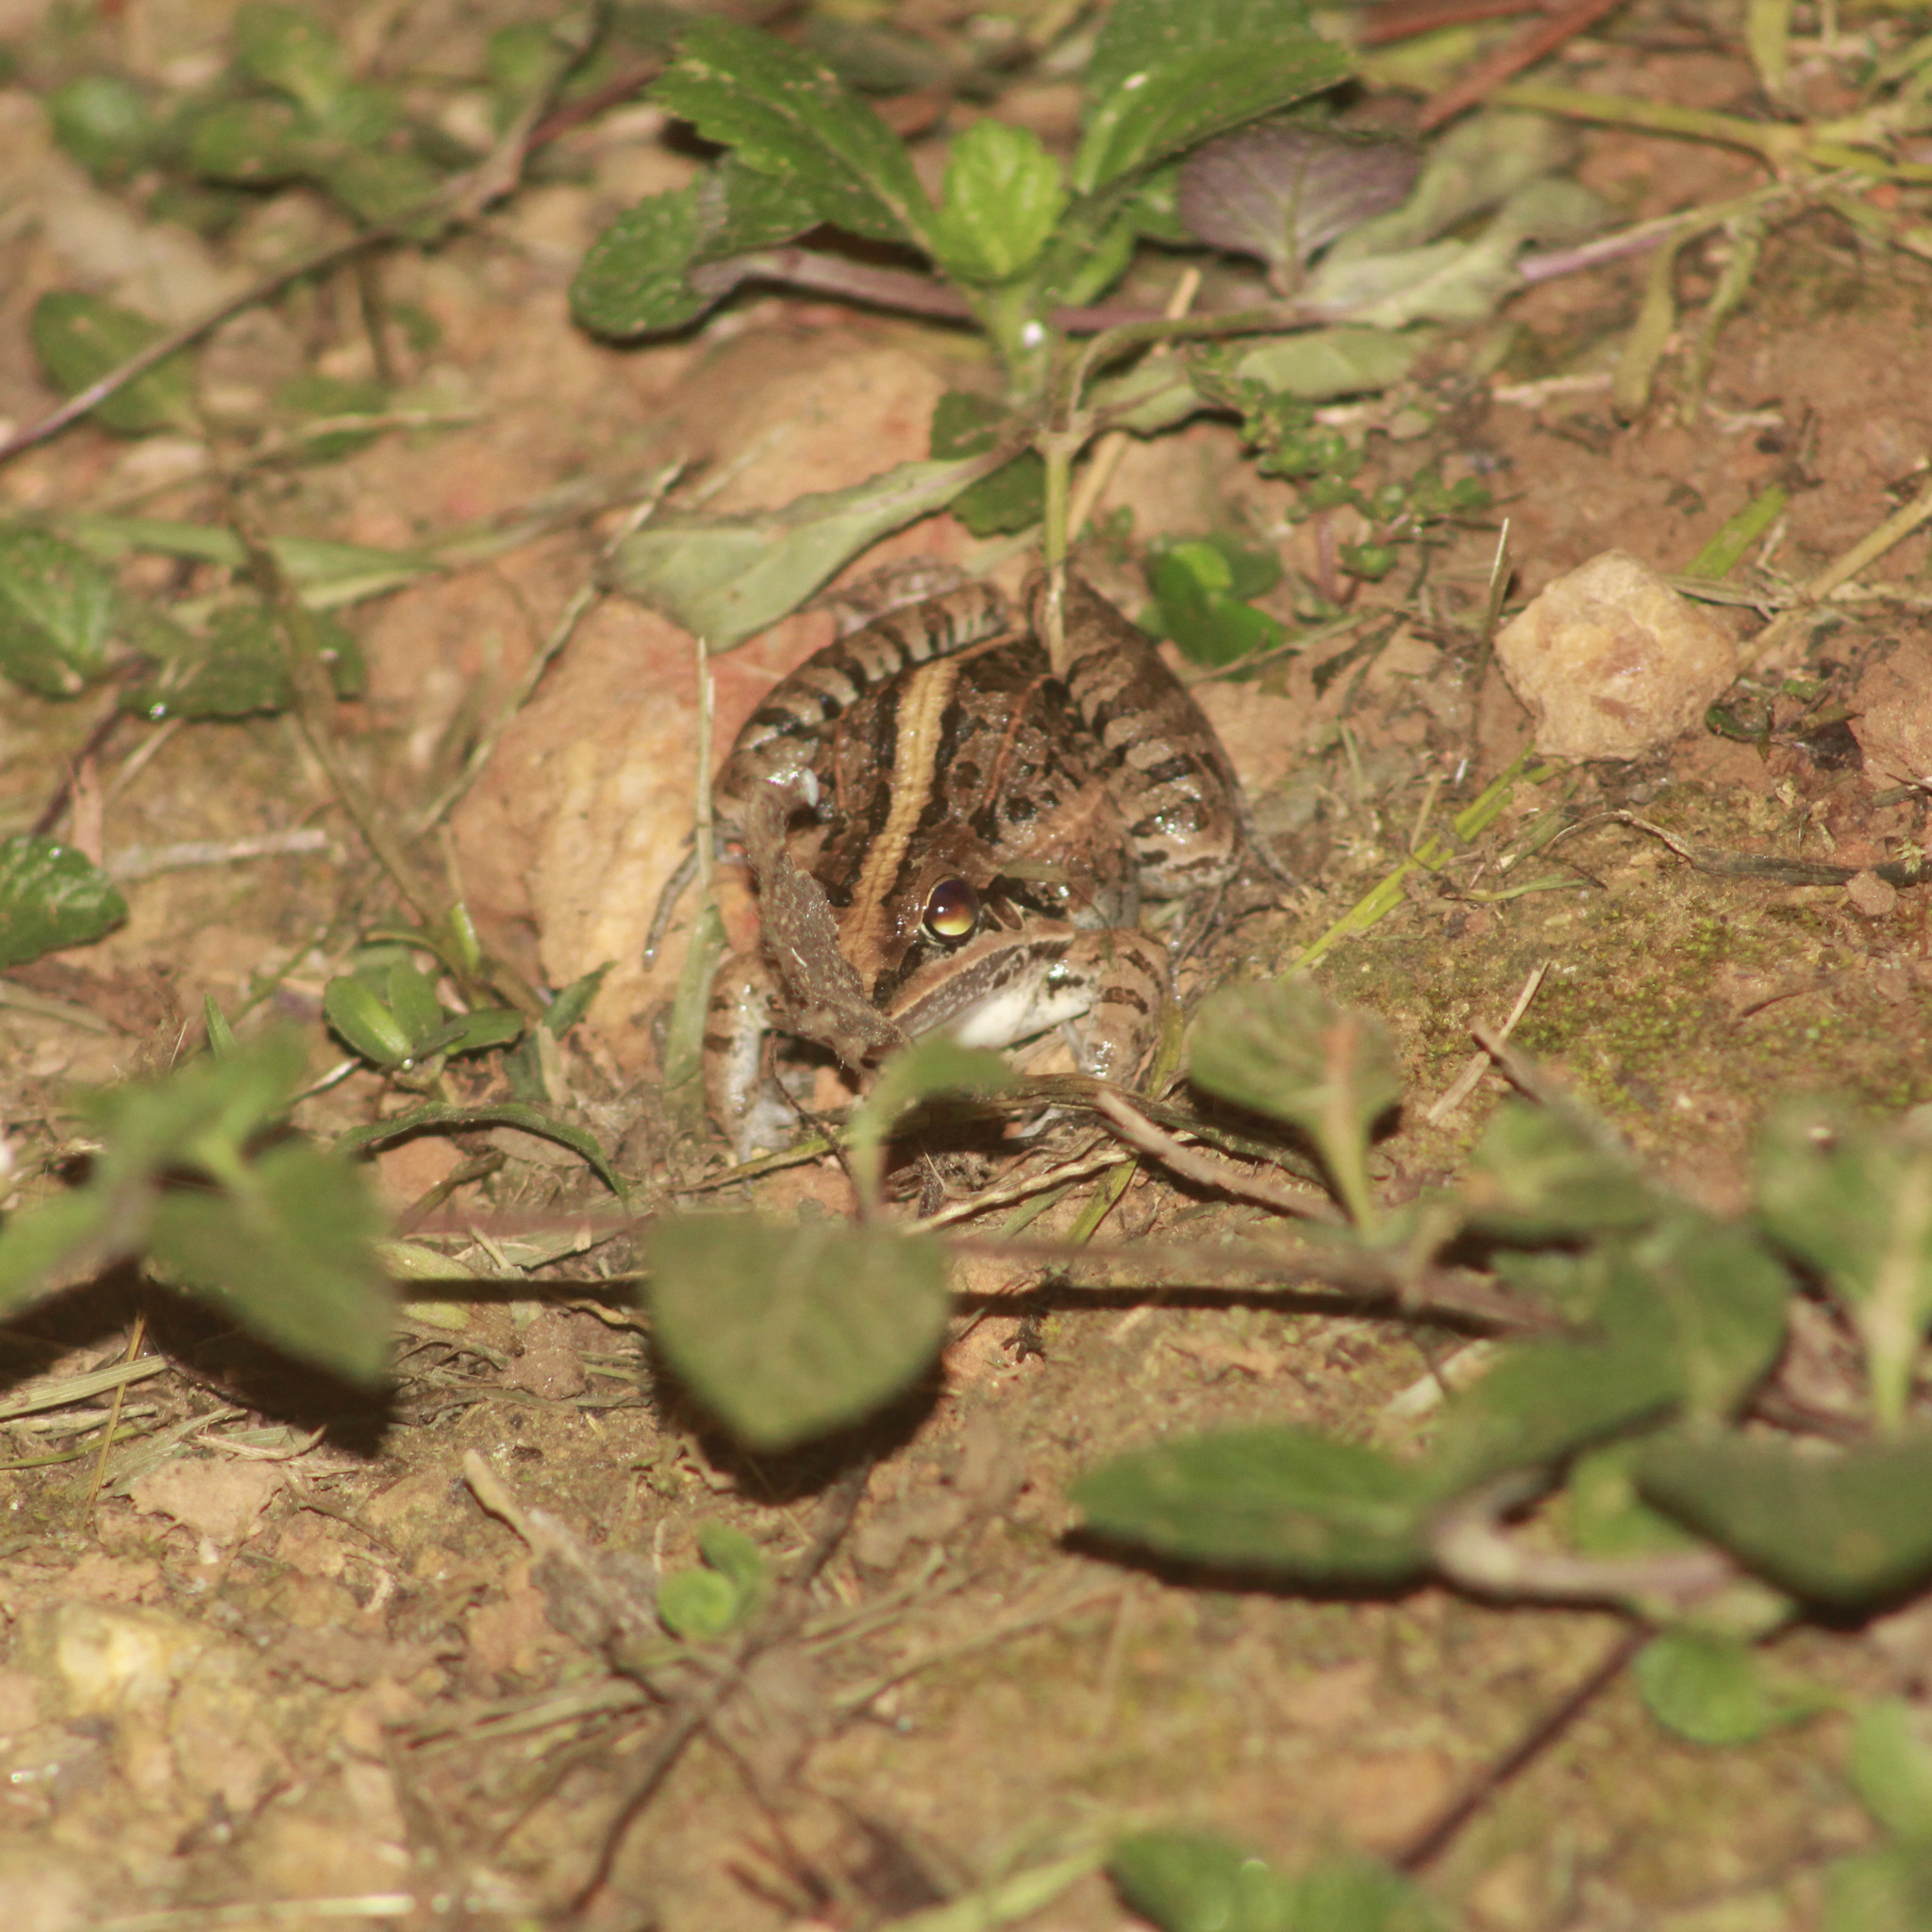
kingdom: Animalia
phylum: Chordata
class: Amphibia
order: Anura
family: Leptodactylidae
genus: Leptodactylus
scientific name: Leptodactylus fuscus
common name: Rufous frog
